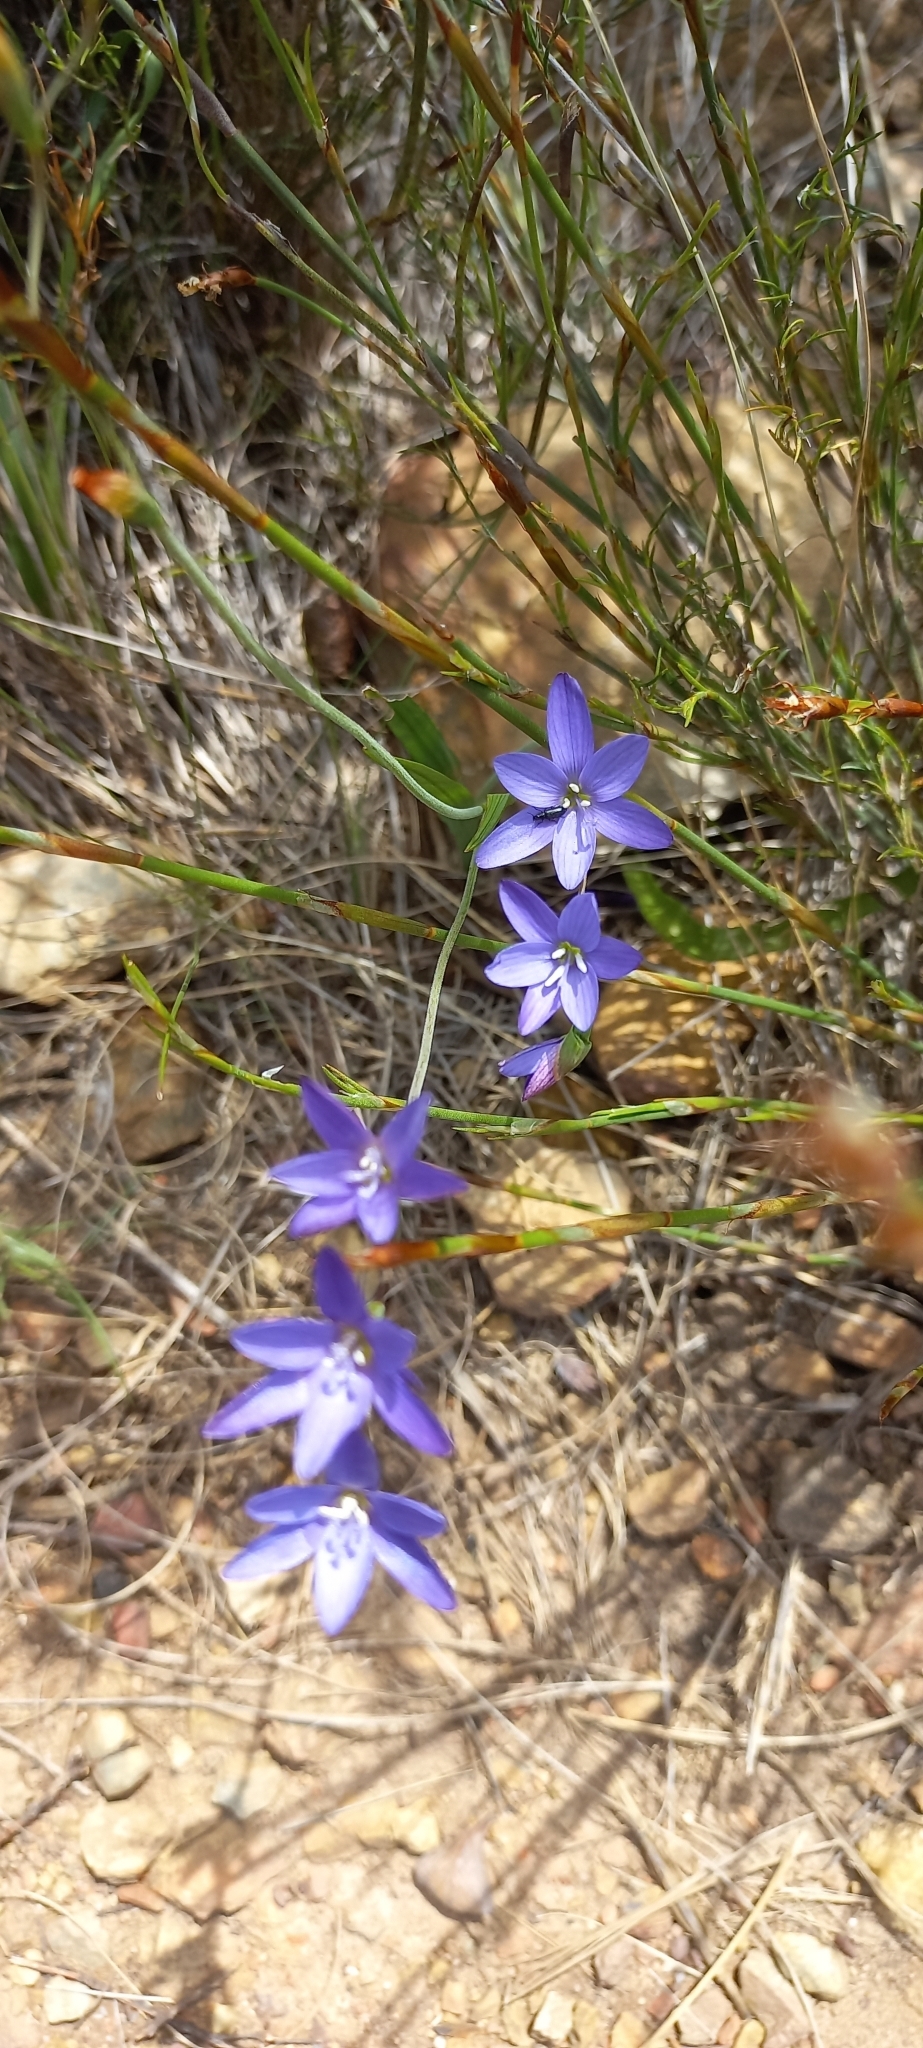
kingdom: Plantae
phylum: Tracheophyta
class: Liliopsida
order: Asparagales
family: Iridaceae
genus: Geissorhiza
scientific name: Geissorhiza aspera
